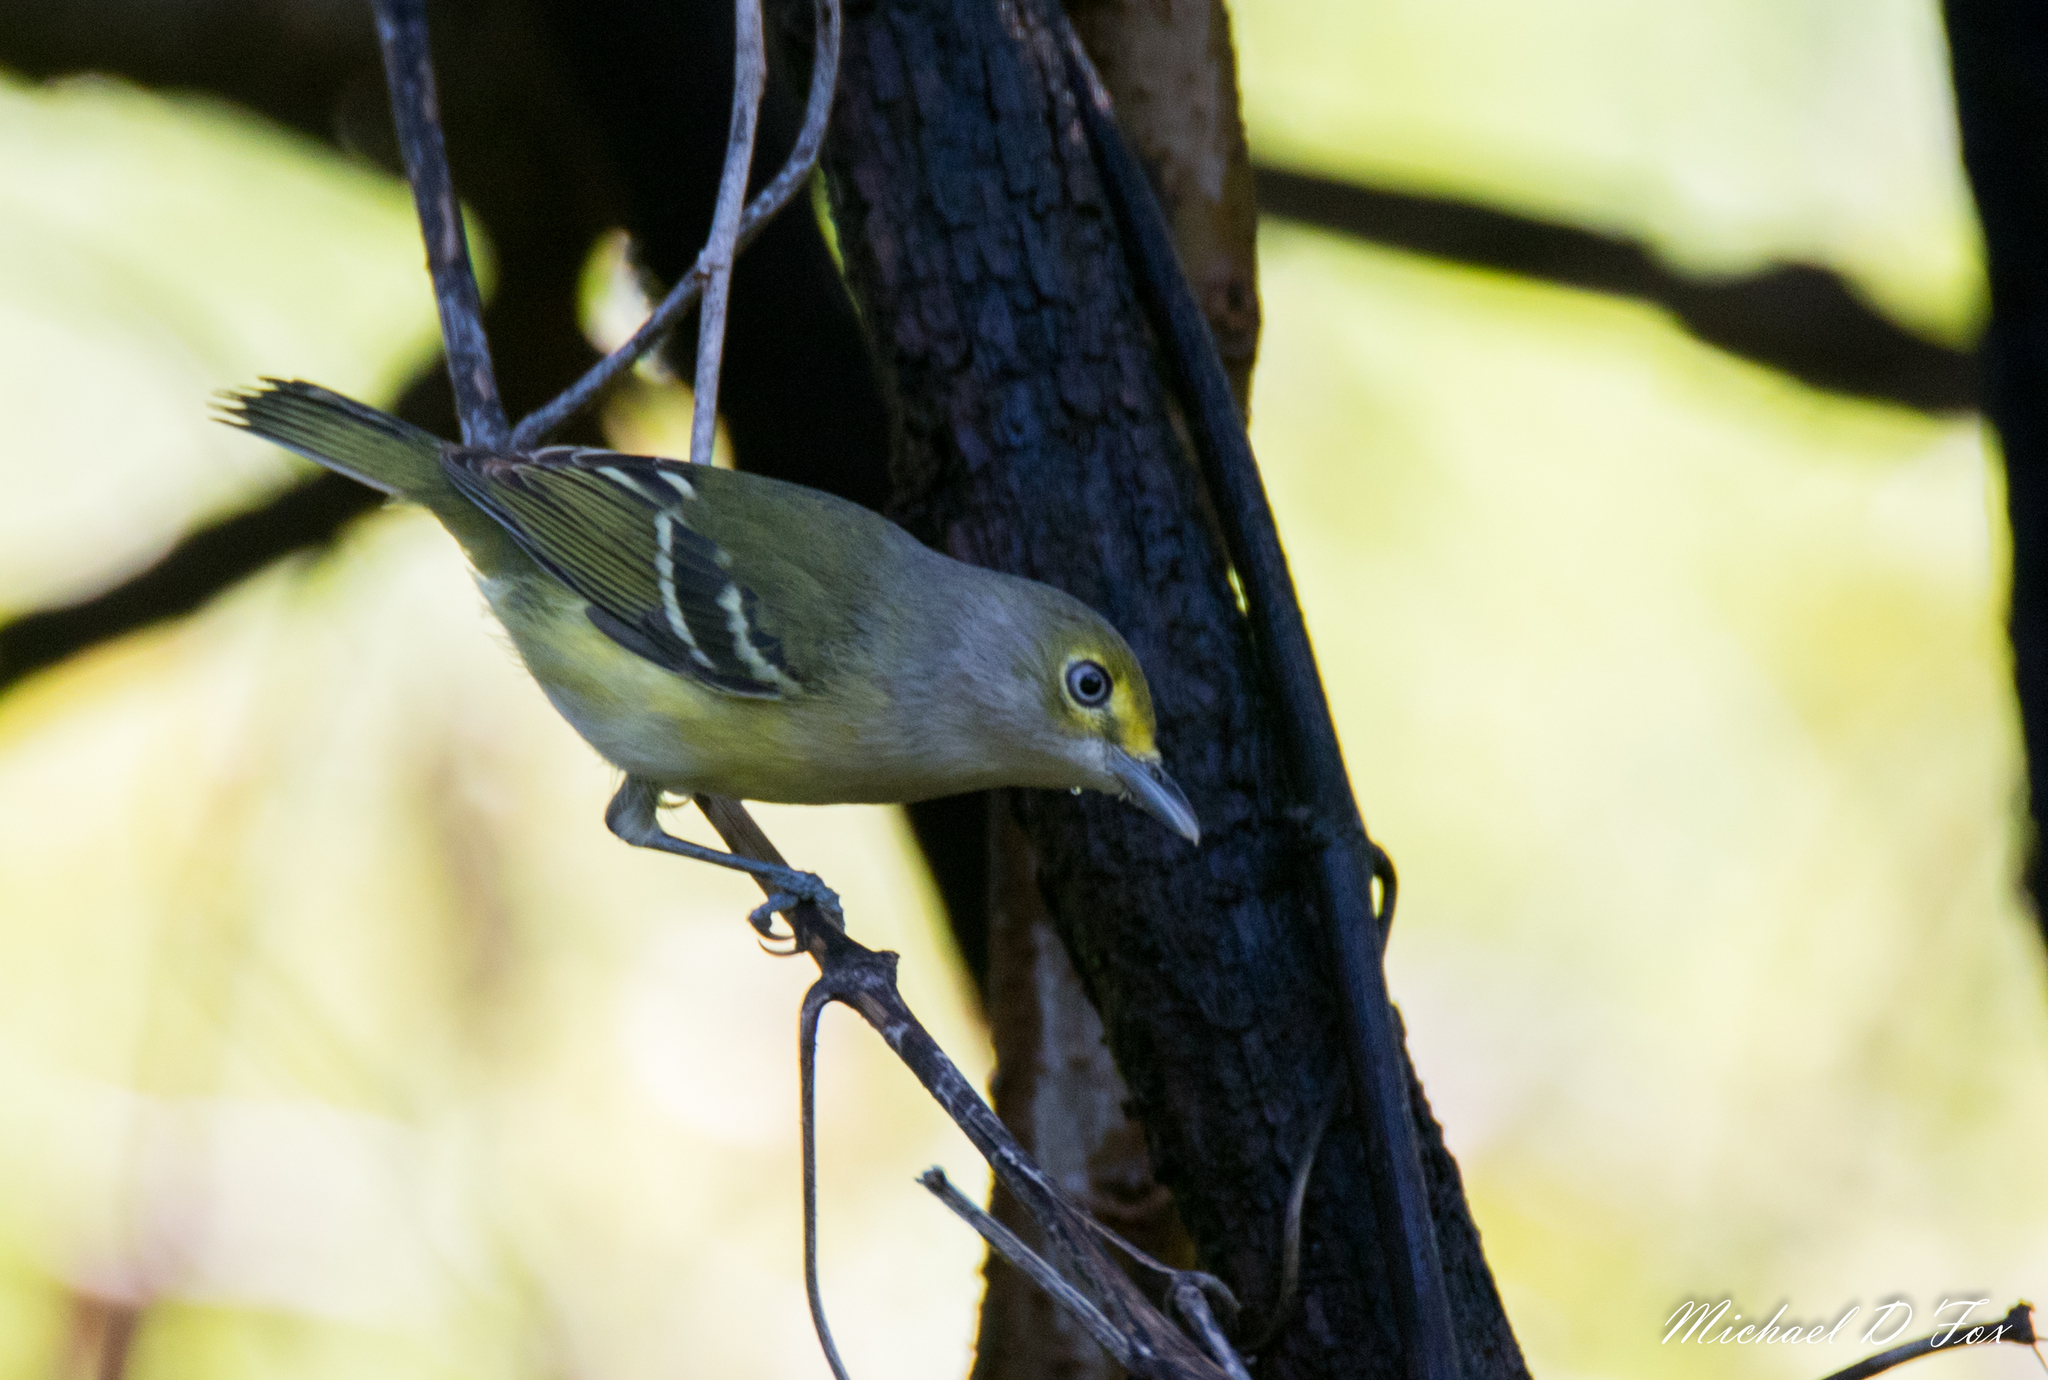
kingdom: Animalia
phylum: Chordata
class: Aves
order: Passeriformes
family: Vireonidae
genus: Vireo
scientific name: Vireo griseus
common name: White-eyed vireo
